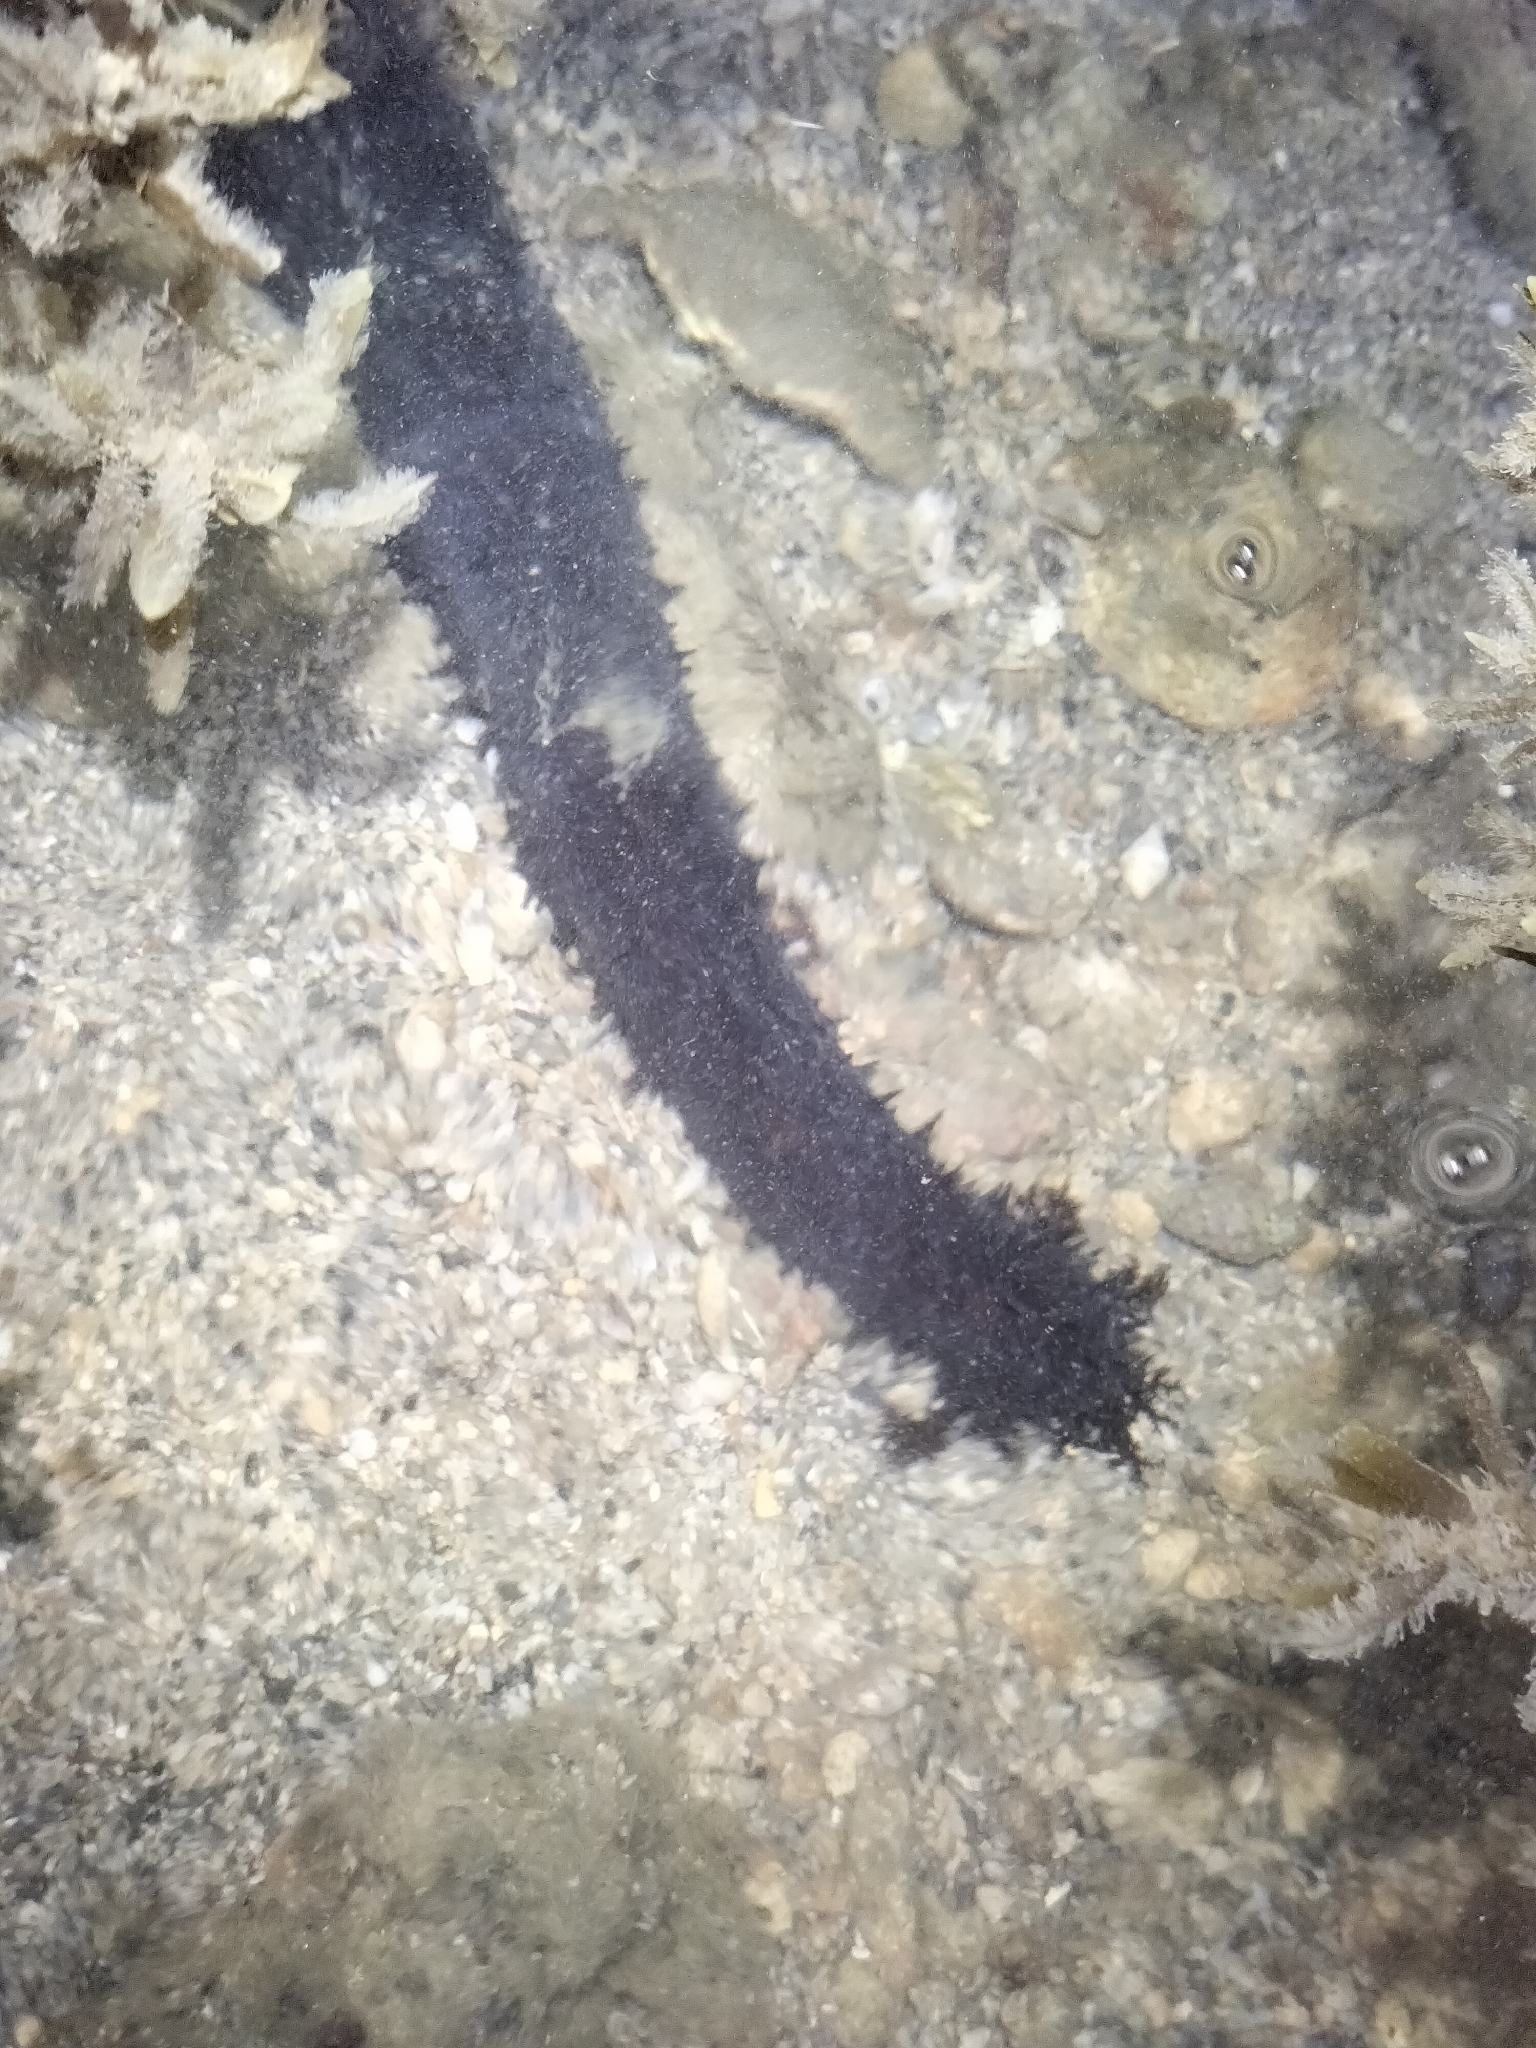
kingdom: Animalia
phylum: Echinodermata
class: Holothuroidea
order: Holothuriida
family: Holothuriidae
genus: Holothuria
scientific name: Holothuria leucospilota
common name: White thread fish
